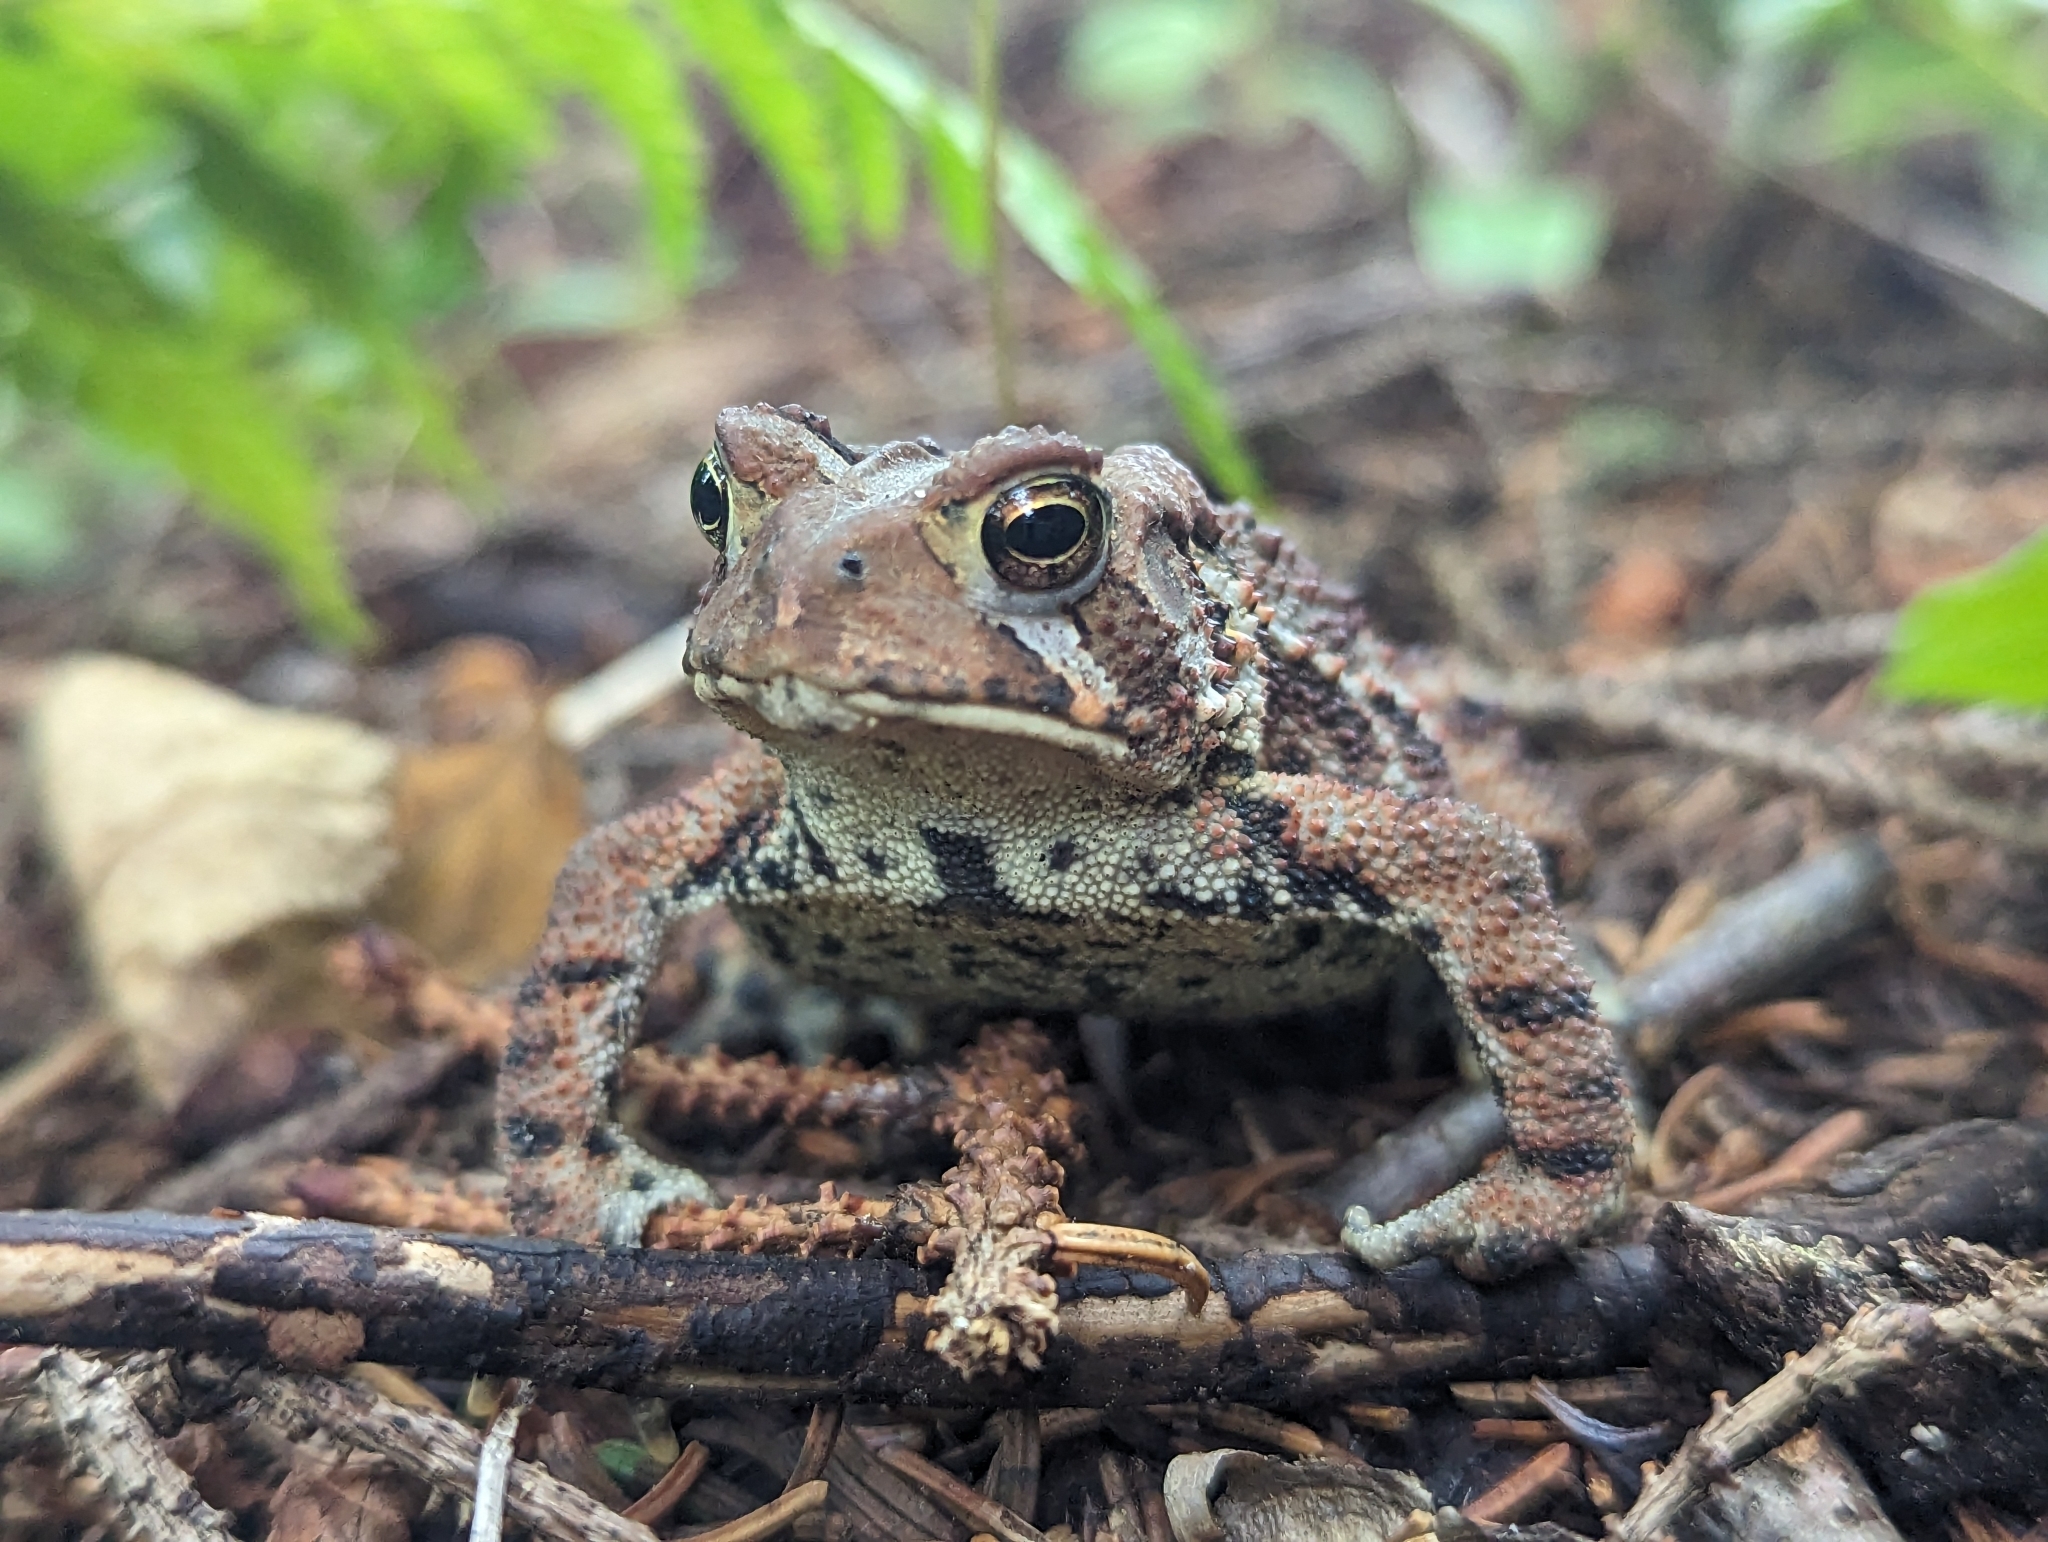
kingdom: Animalia
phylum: Chordata
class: Amphibia
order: Anura
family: Bufonidae
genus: Anaxyrus
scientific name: Anaxyrus americanus
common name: American toad
